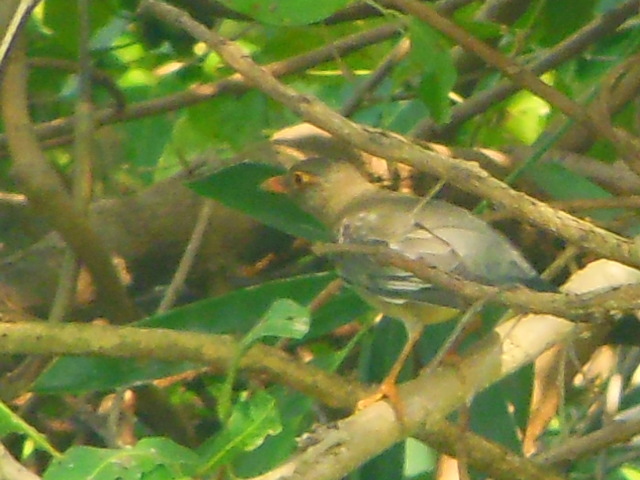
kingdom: Animalia
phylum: Chordata
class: Aves
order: Passeriformes
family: Turdidae
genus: Turdus
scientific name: Turdus simillimus
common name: Indian blackbird
